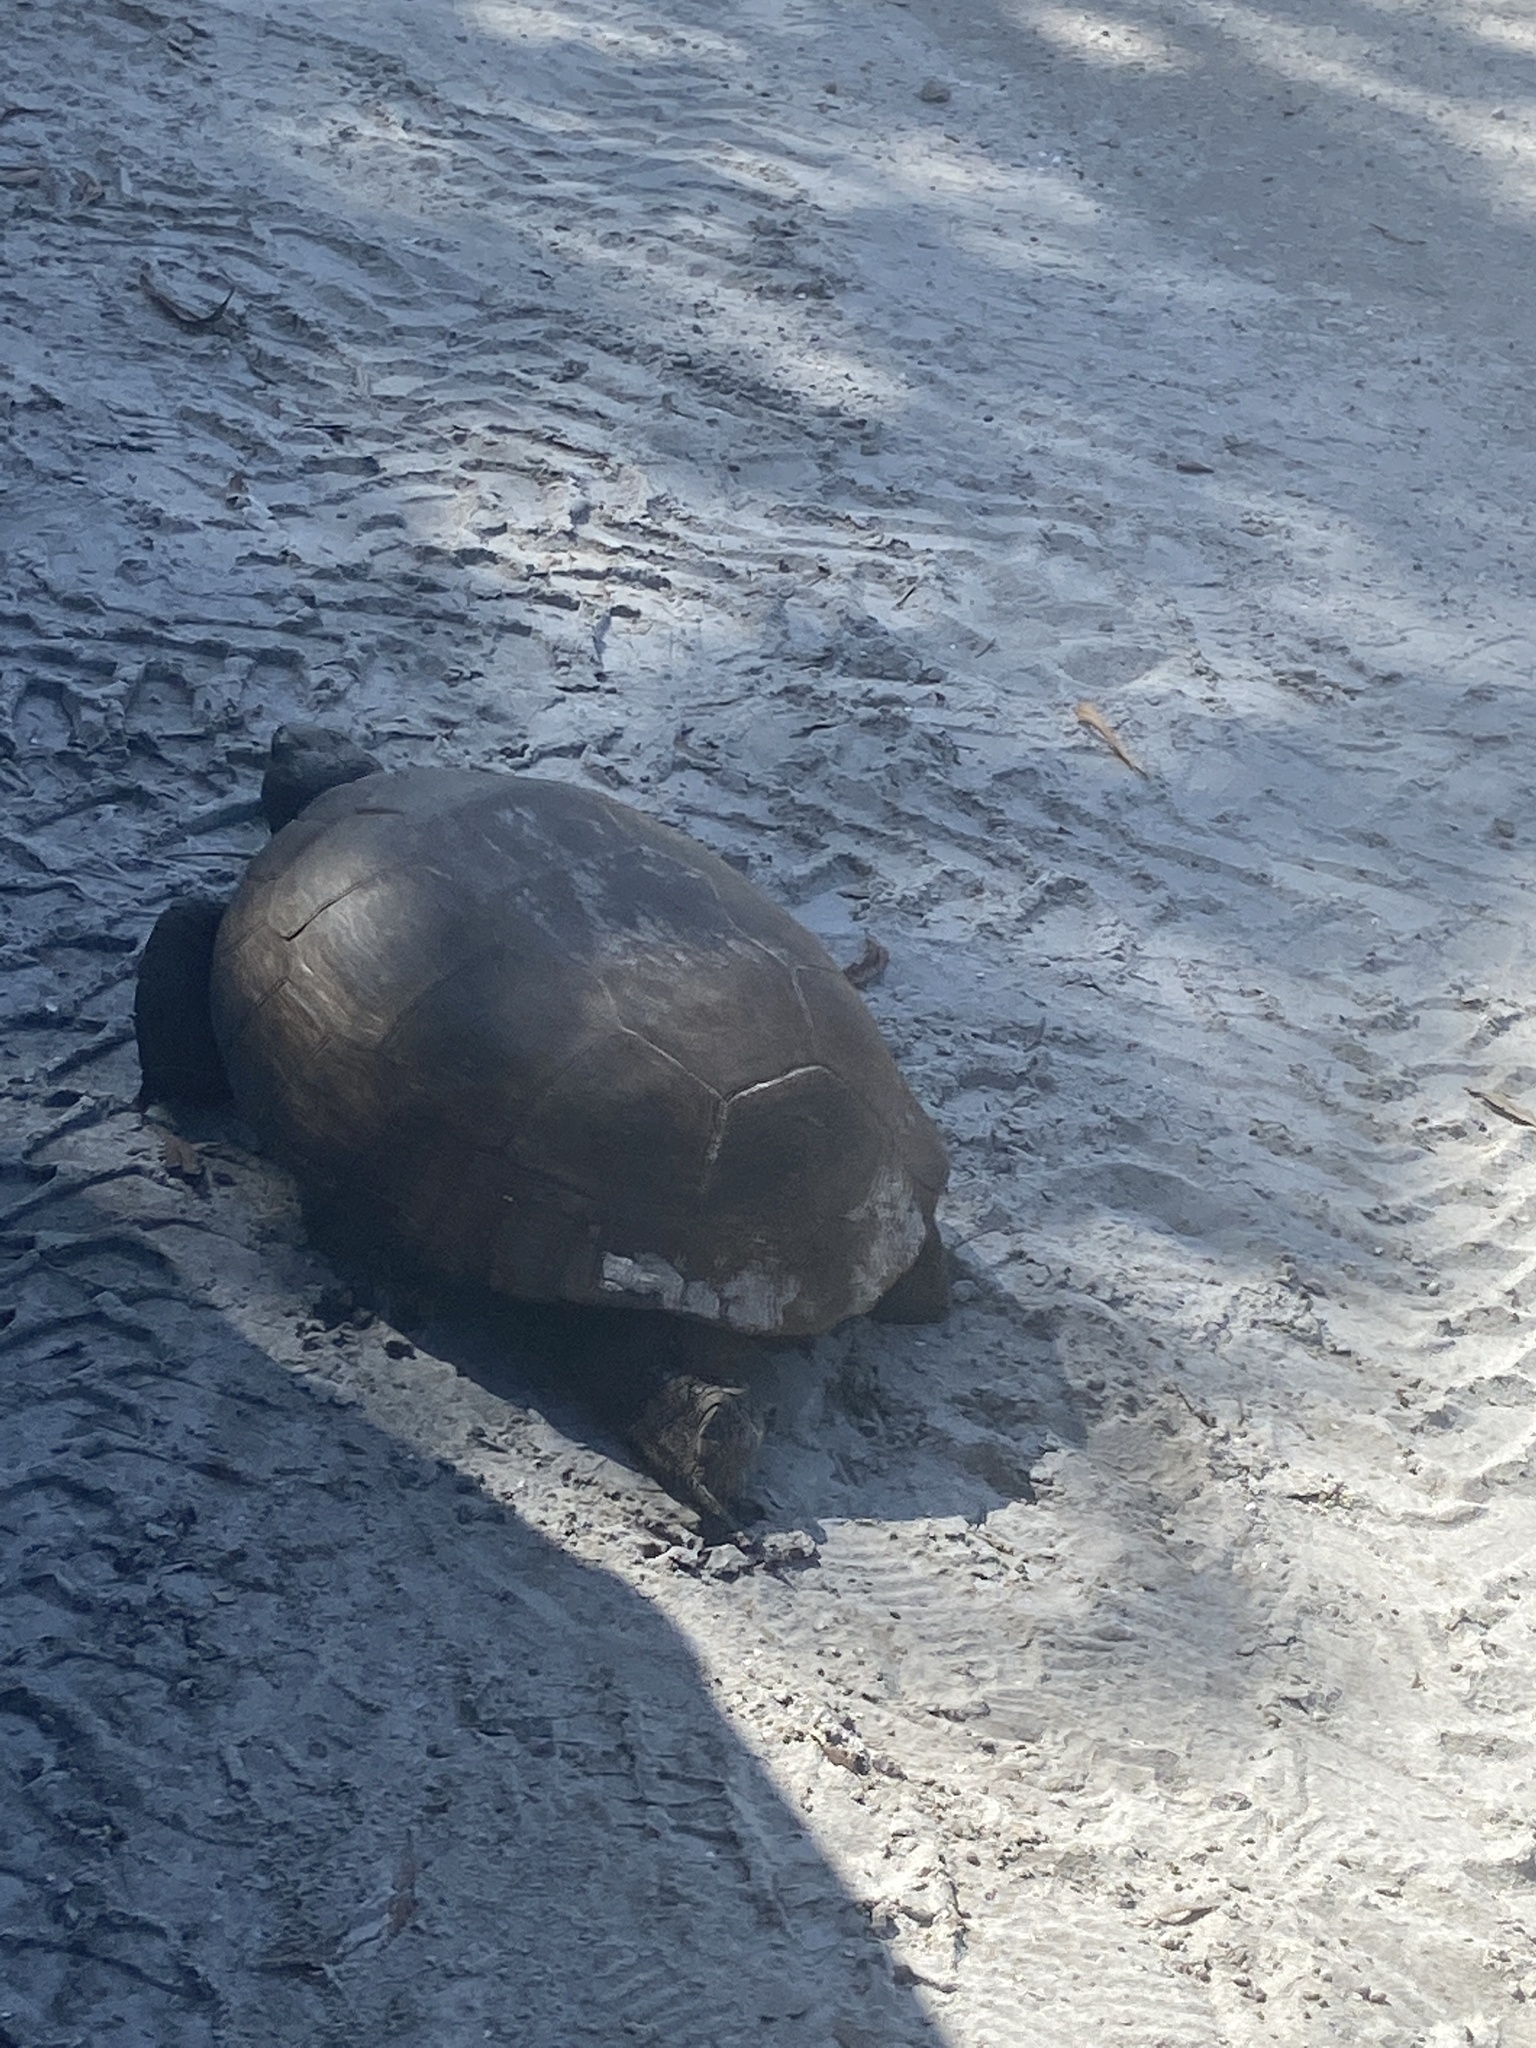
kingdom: Animalia
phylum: Chordata
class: Testudines
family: Testudinidae
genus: Gopherus
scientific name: Gopherus polyphemus
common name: Florida gopher tortoise
